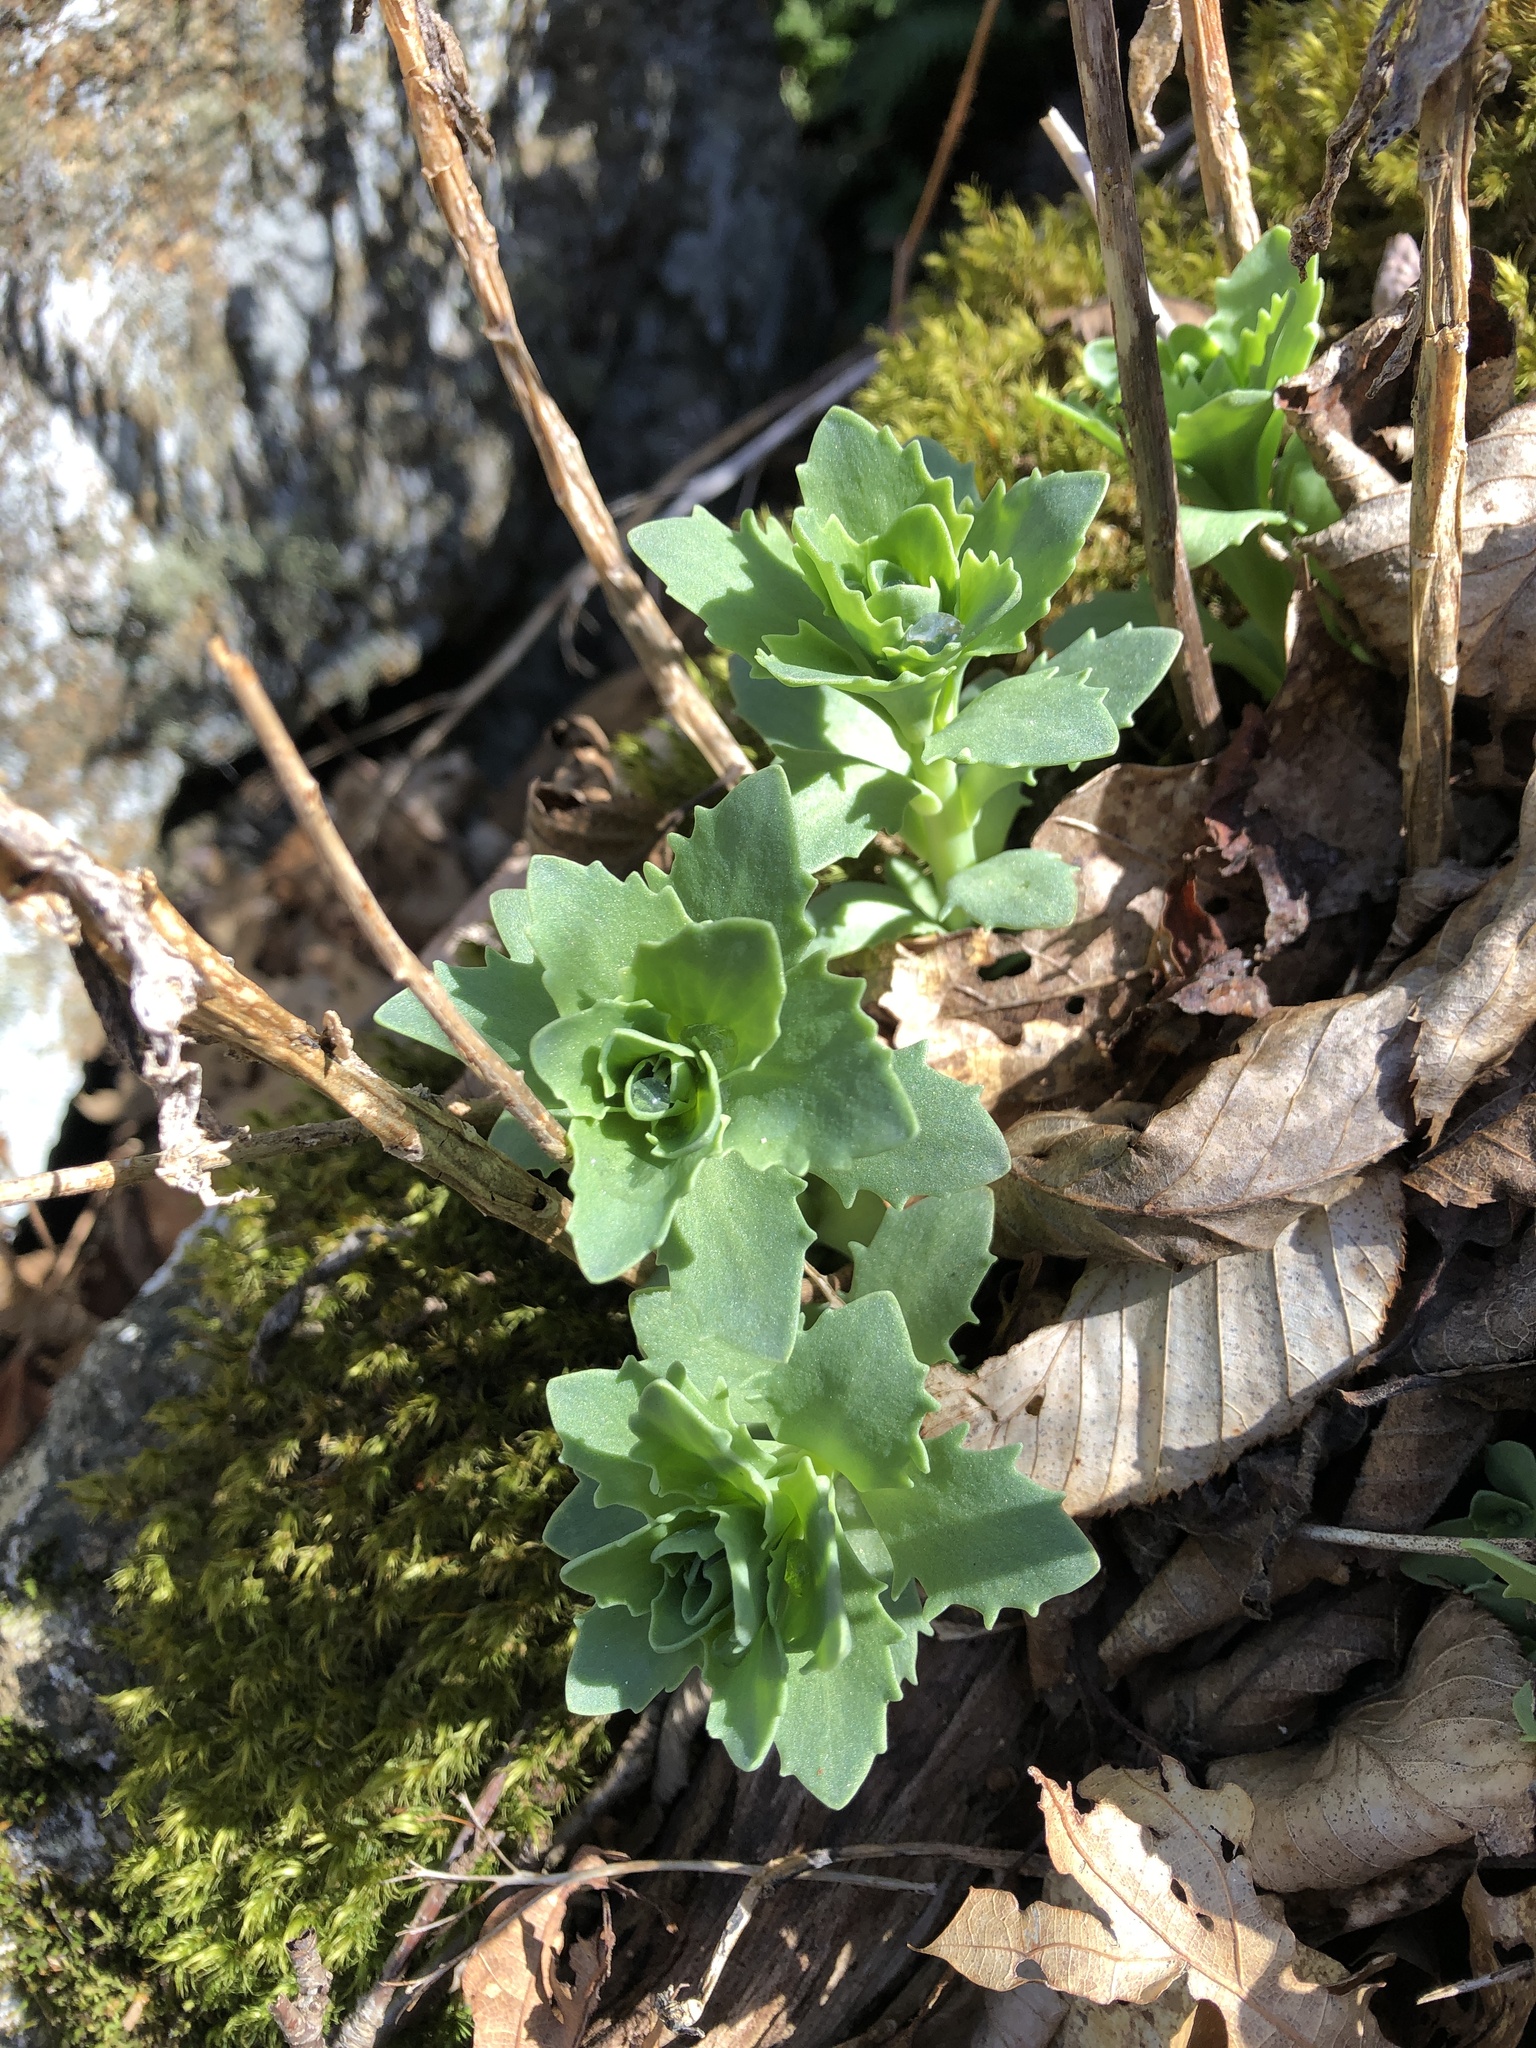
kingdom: Plantae
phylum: Tracheophyta
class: Magnoliopsida
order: Saxifragales
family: Crassulaceae
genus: Hylotelephium
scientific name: Hylotelephium telephioides
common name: Allegheny stonecrop
